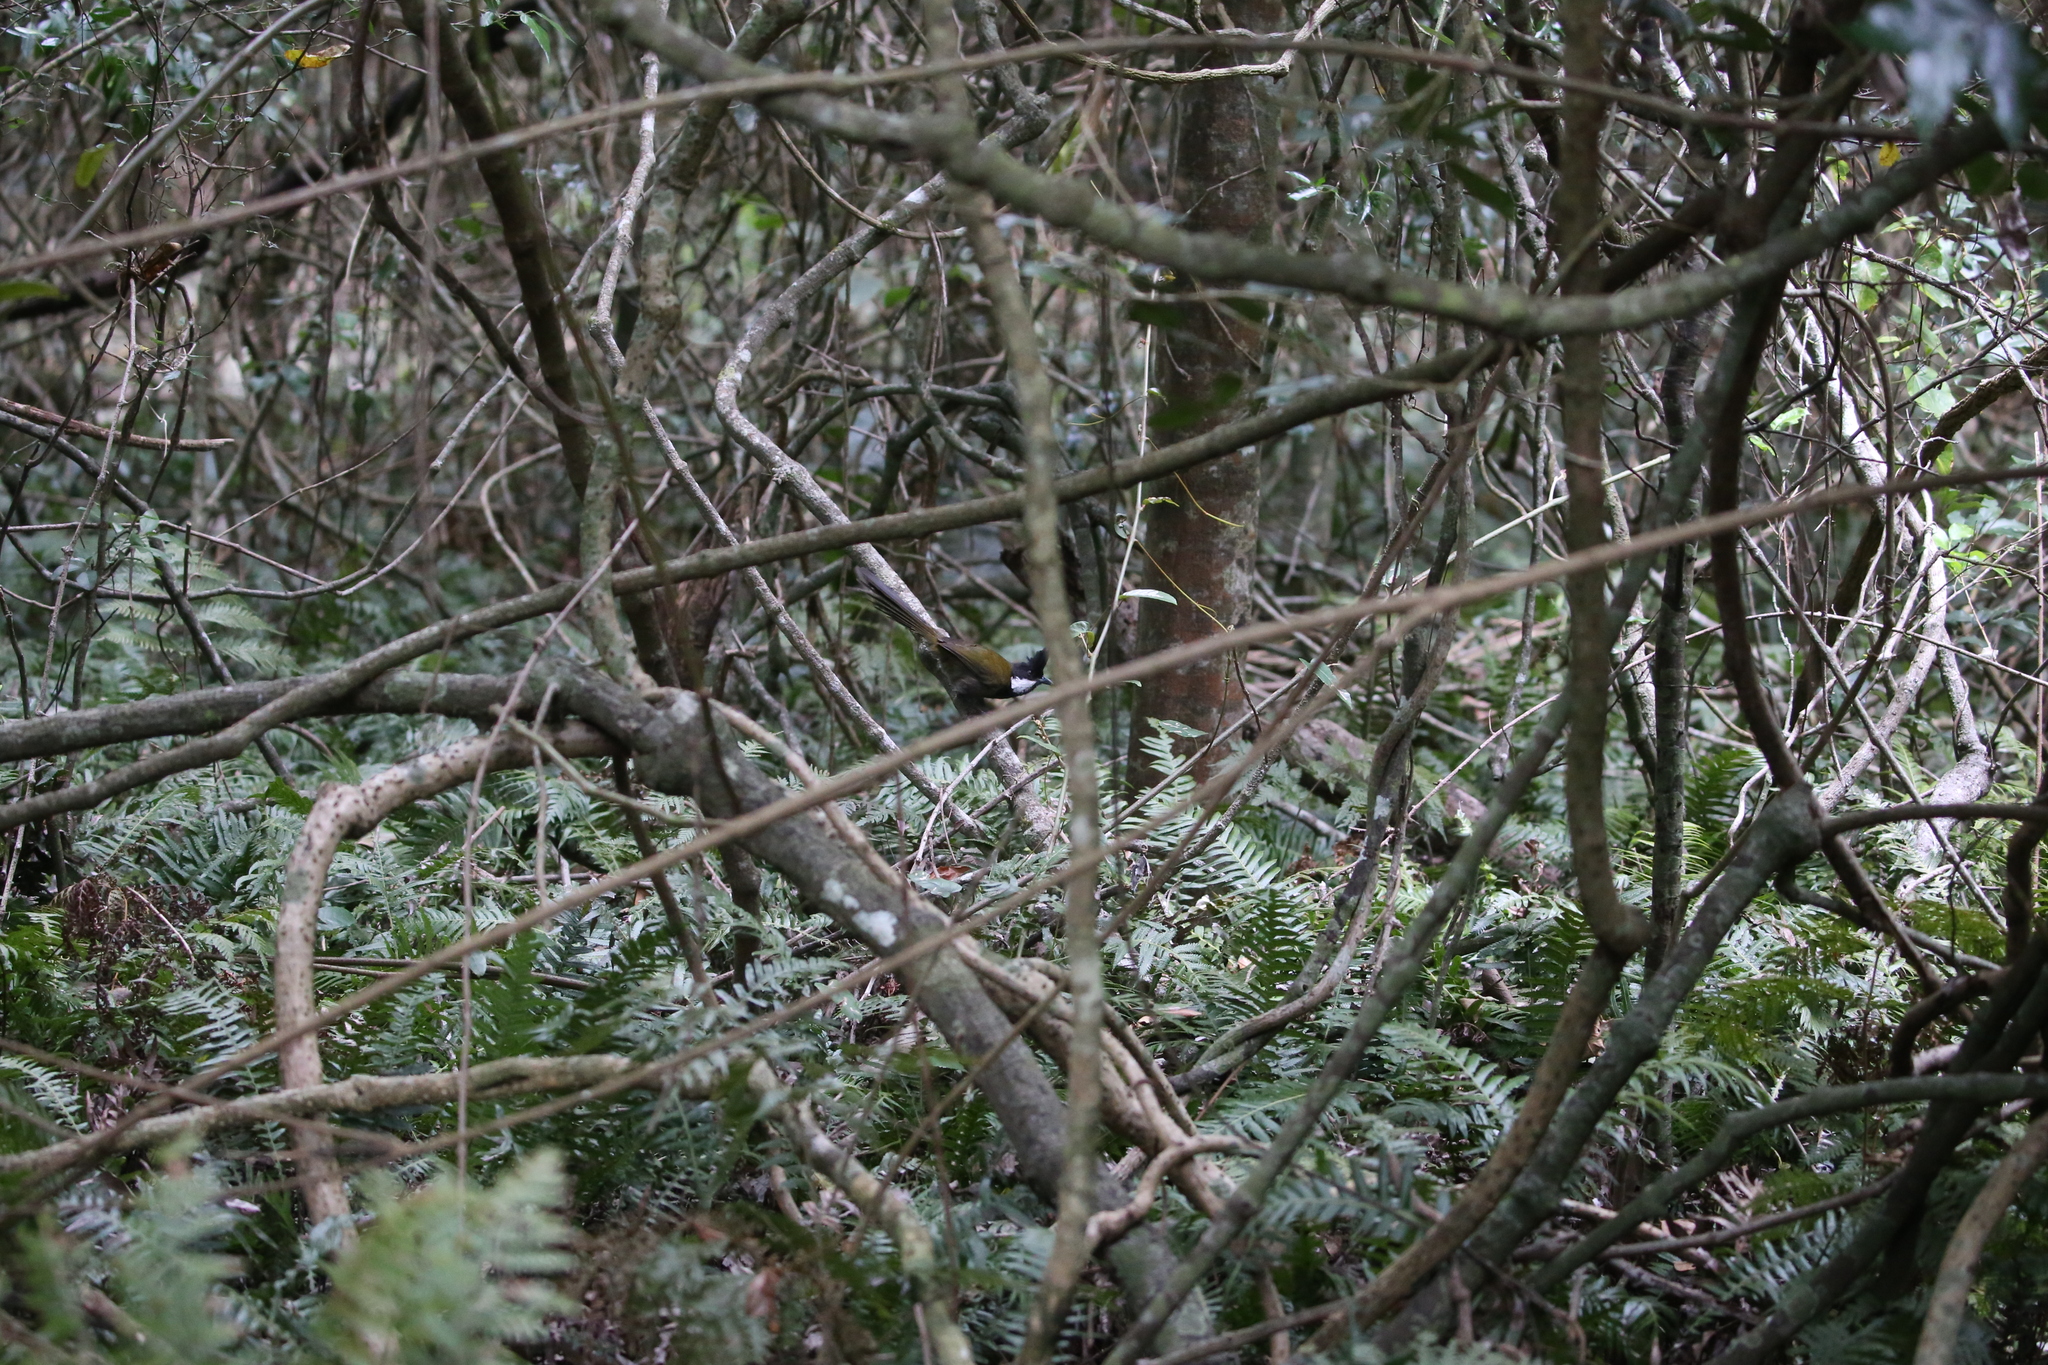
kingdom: Animalia
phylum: Chordata
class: Aves
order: Passeriformes
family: Psophodidae
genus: Psophodes
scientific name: Psophodes olivaceus
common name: Eastern whipbird
